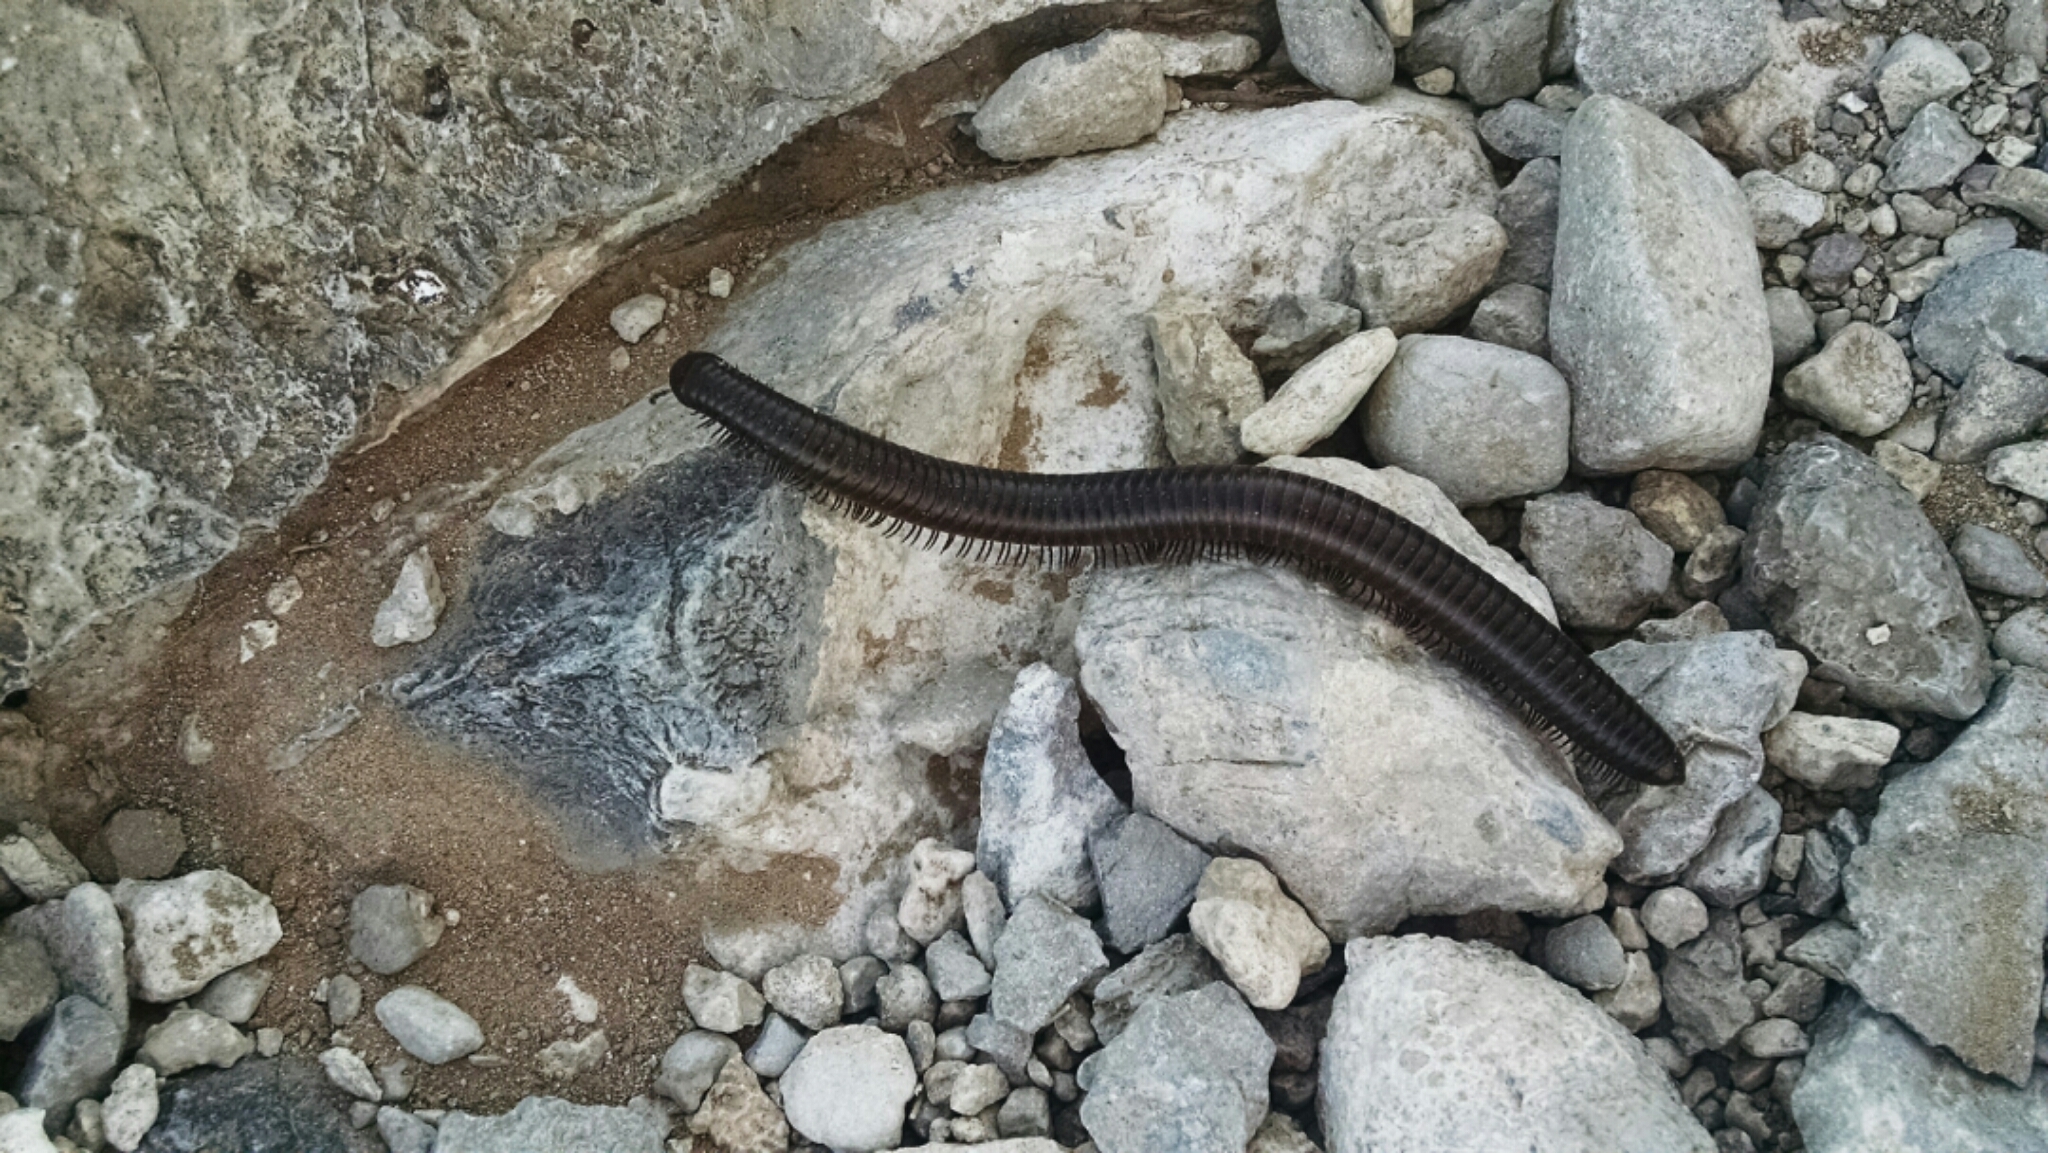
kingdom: Animalia
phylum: Arthropoda
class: Diplopoda
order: Spirostreptida
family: Spirostreptidae
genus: Orthoporus
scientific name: Orthoporus ornatus
